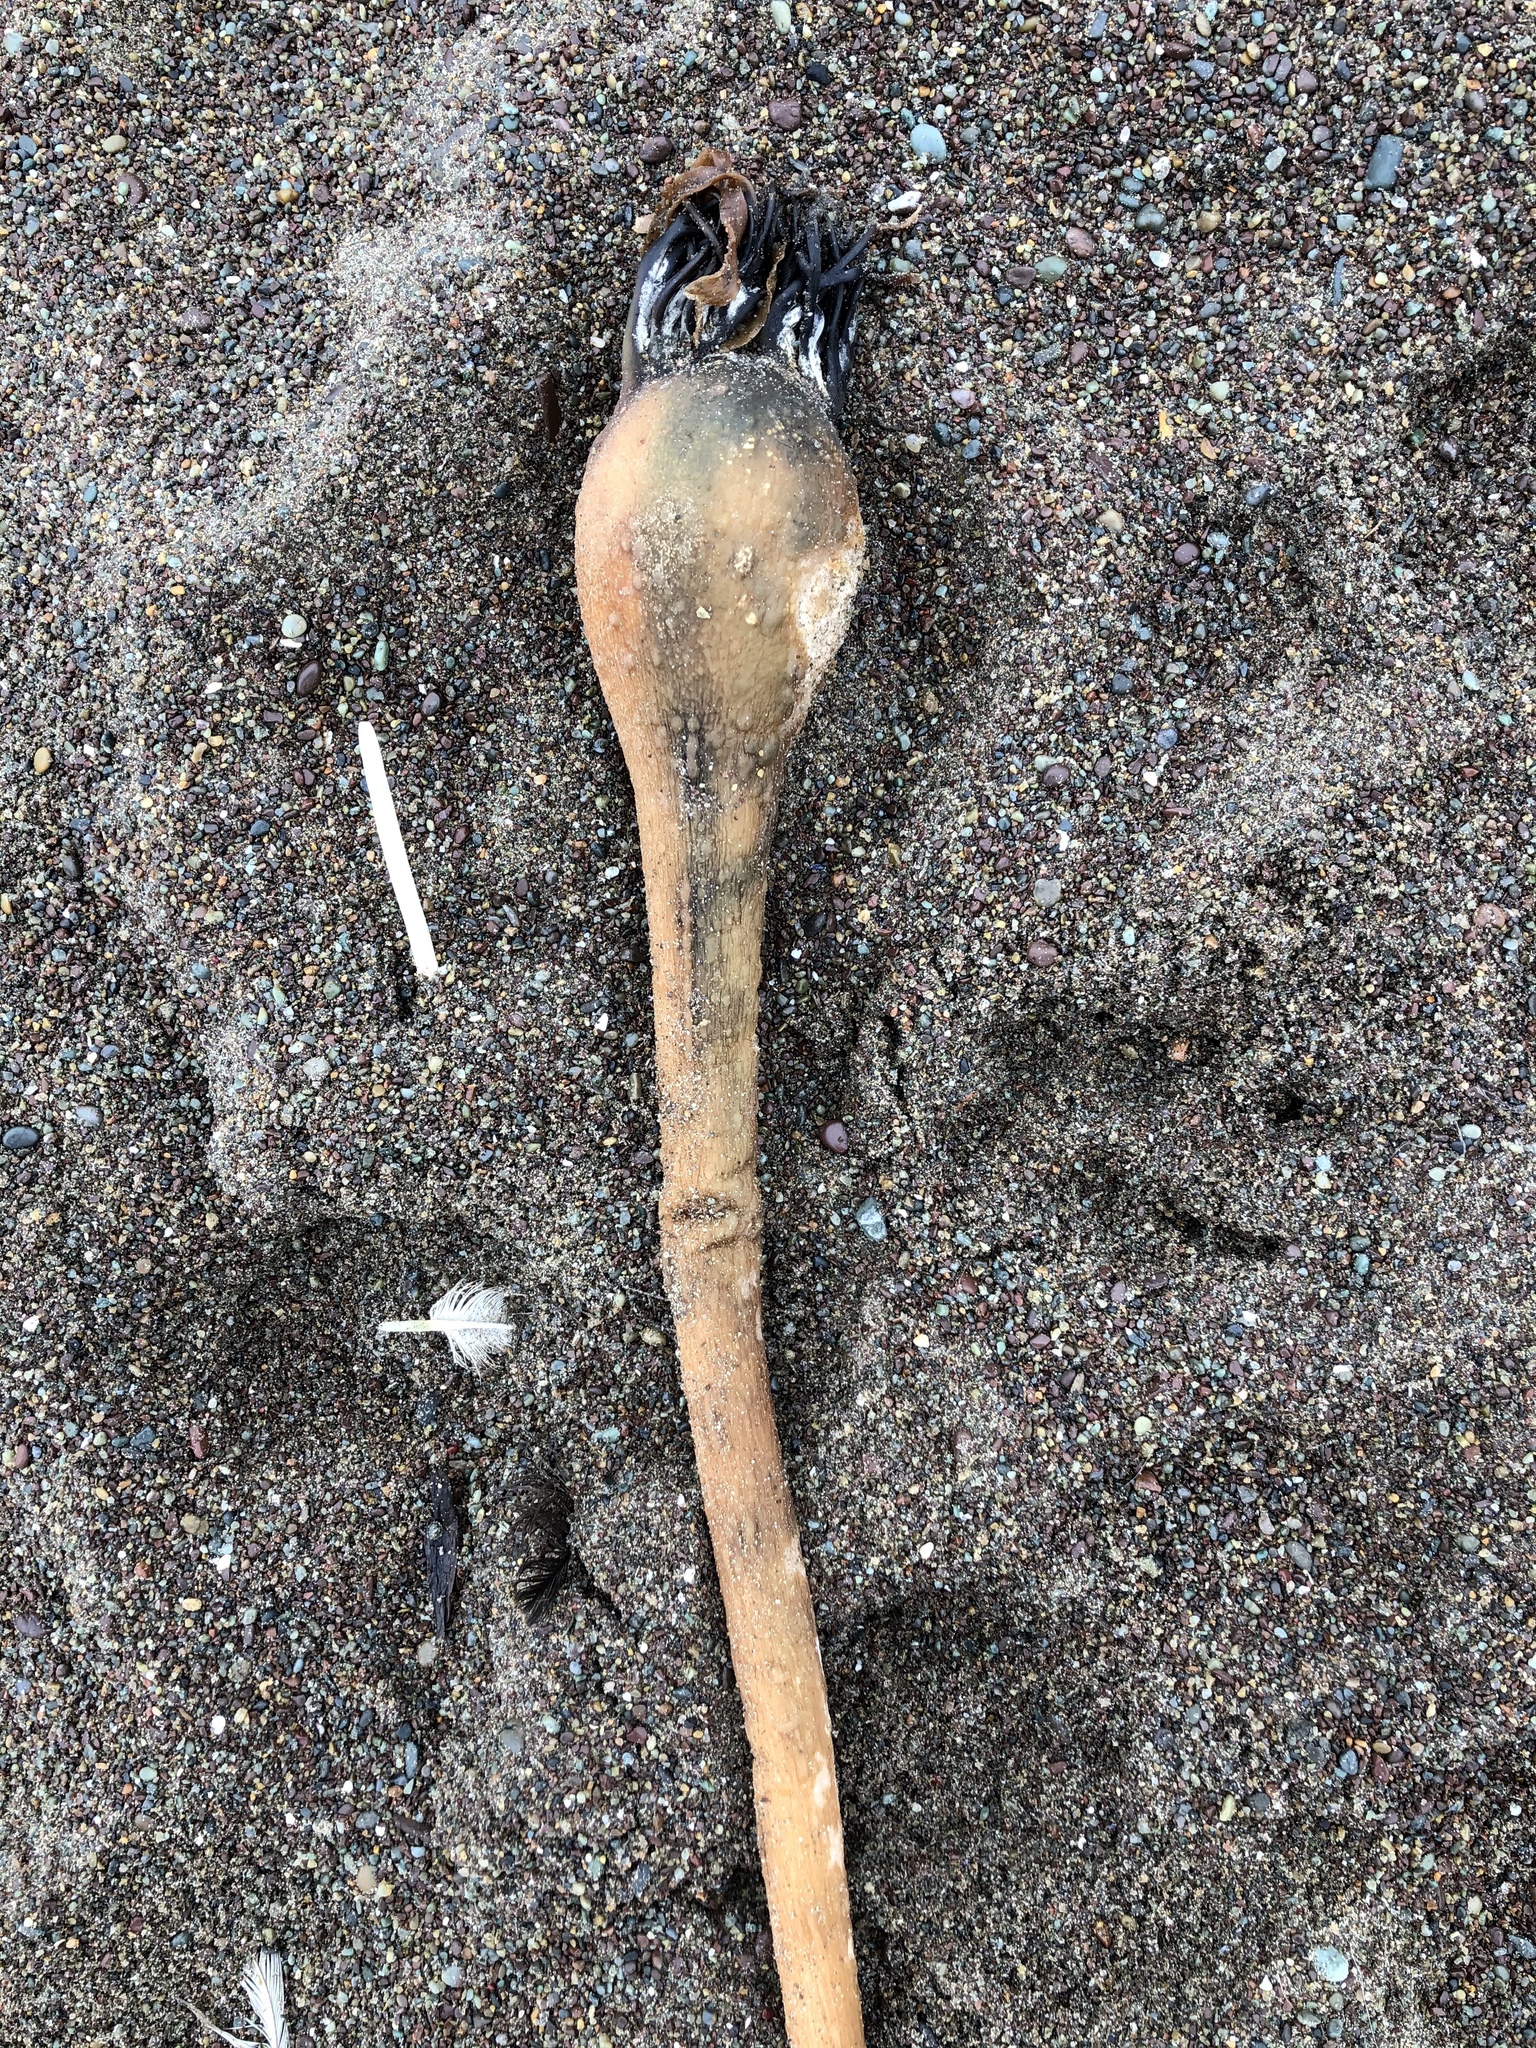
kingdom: Chromista
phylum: Ochrophyta
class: Phaeophyceae
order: Laminariales
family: Laminariaceae
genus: Nereocystis
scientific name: Nereocystis luetkeana
